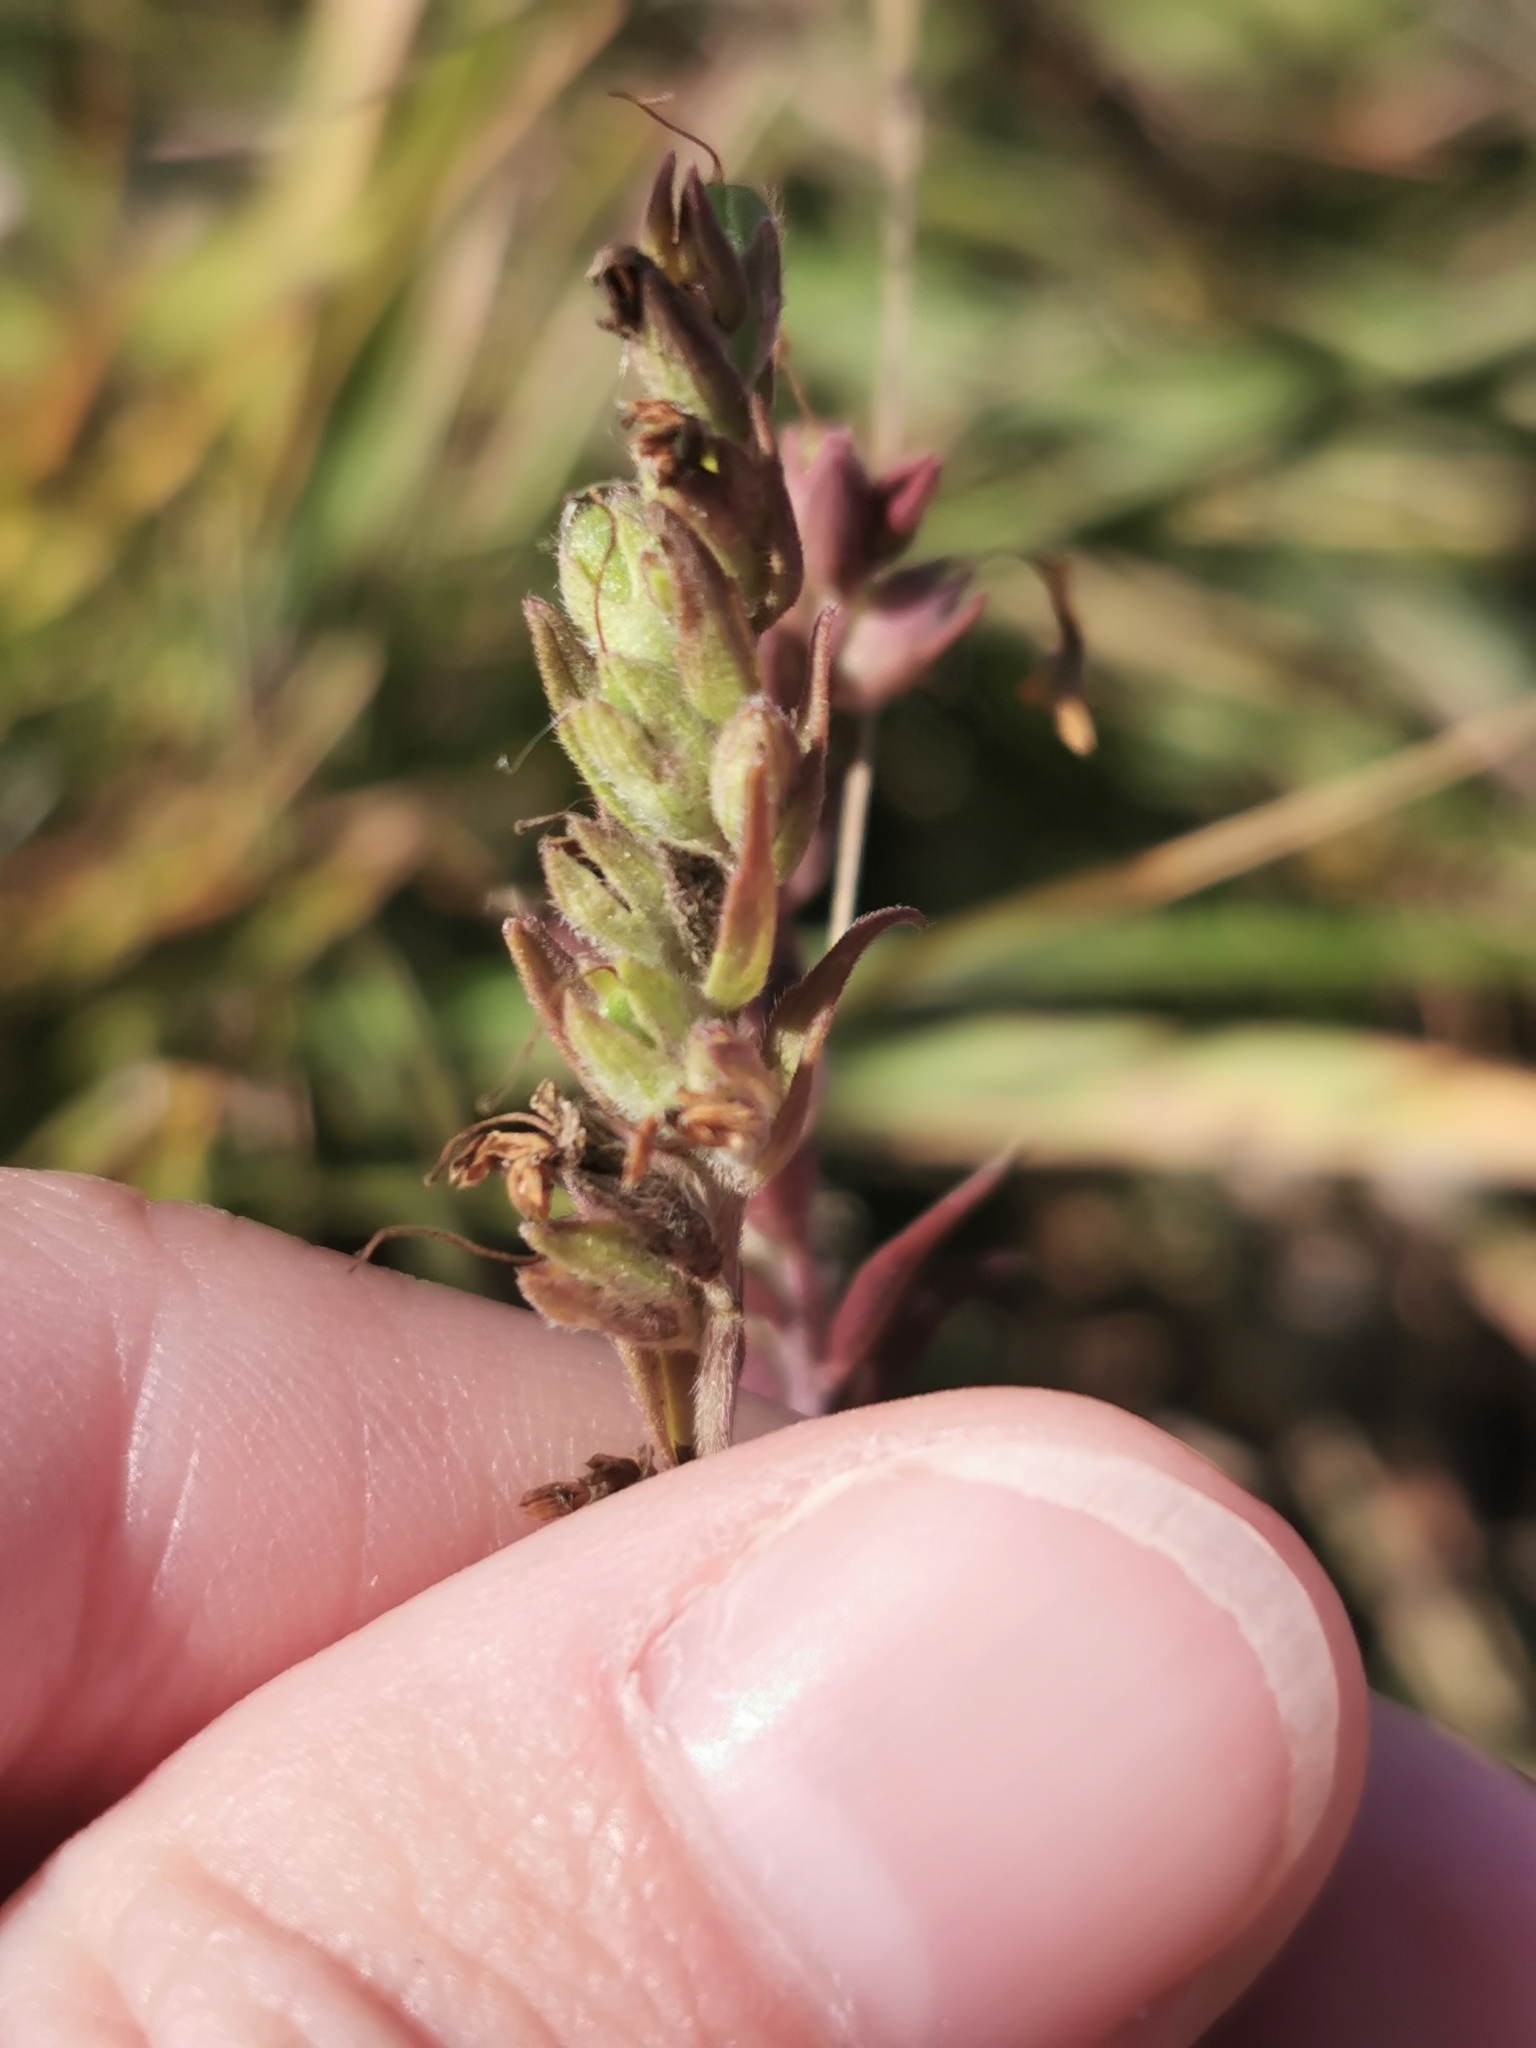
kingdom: Plantae
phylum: Tracheophyta
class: Magnoliopsida
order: Lamiales
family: Orobanchaceae
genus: Odontites
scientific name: Odontites vulgaris
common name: Broomrape
